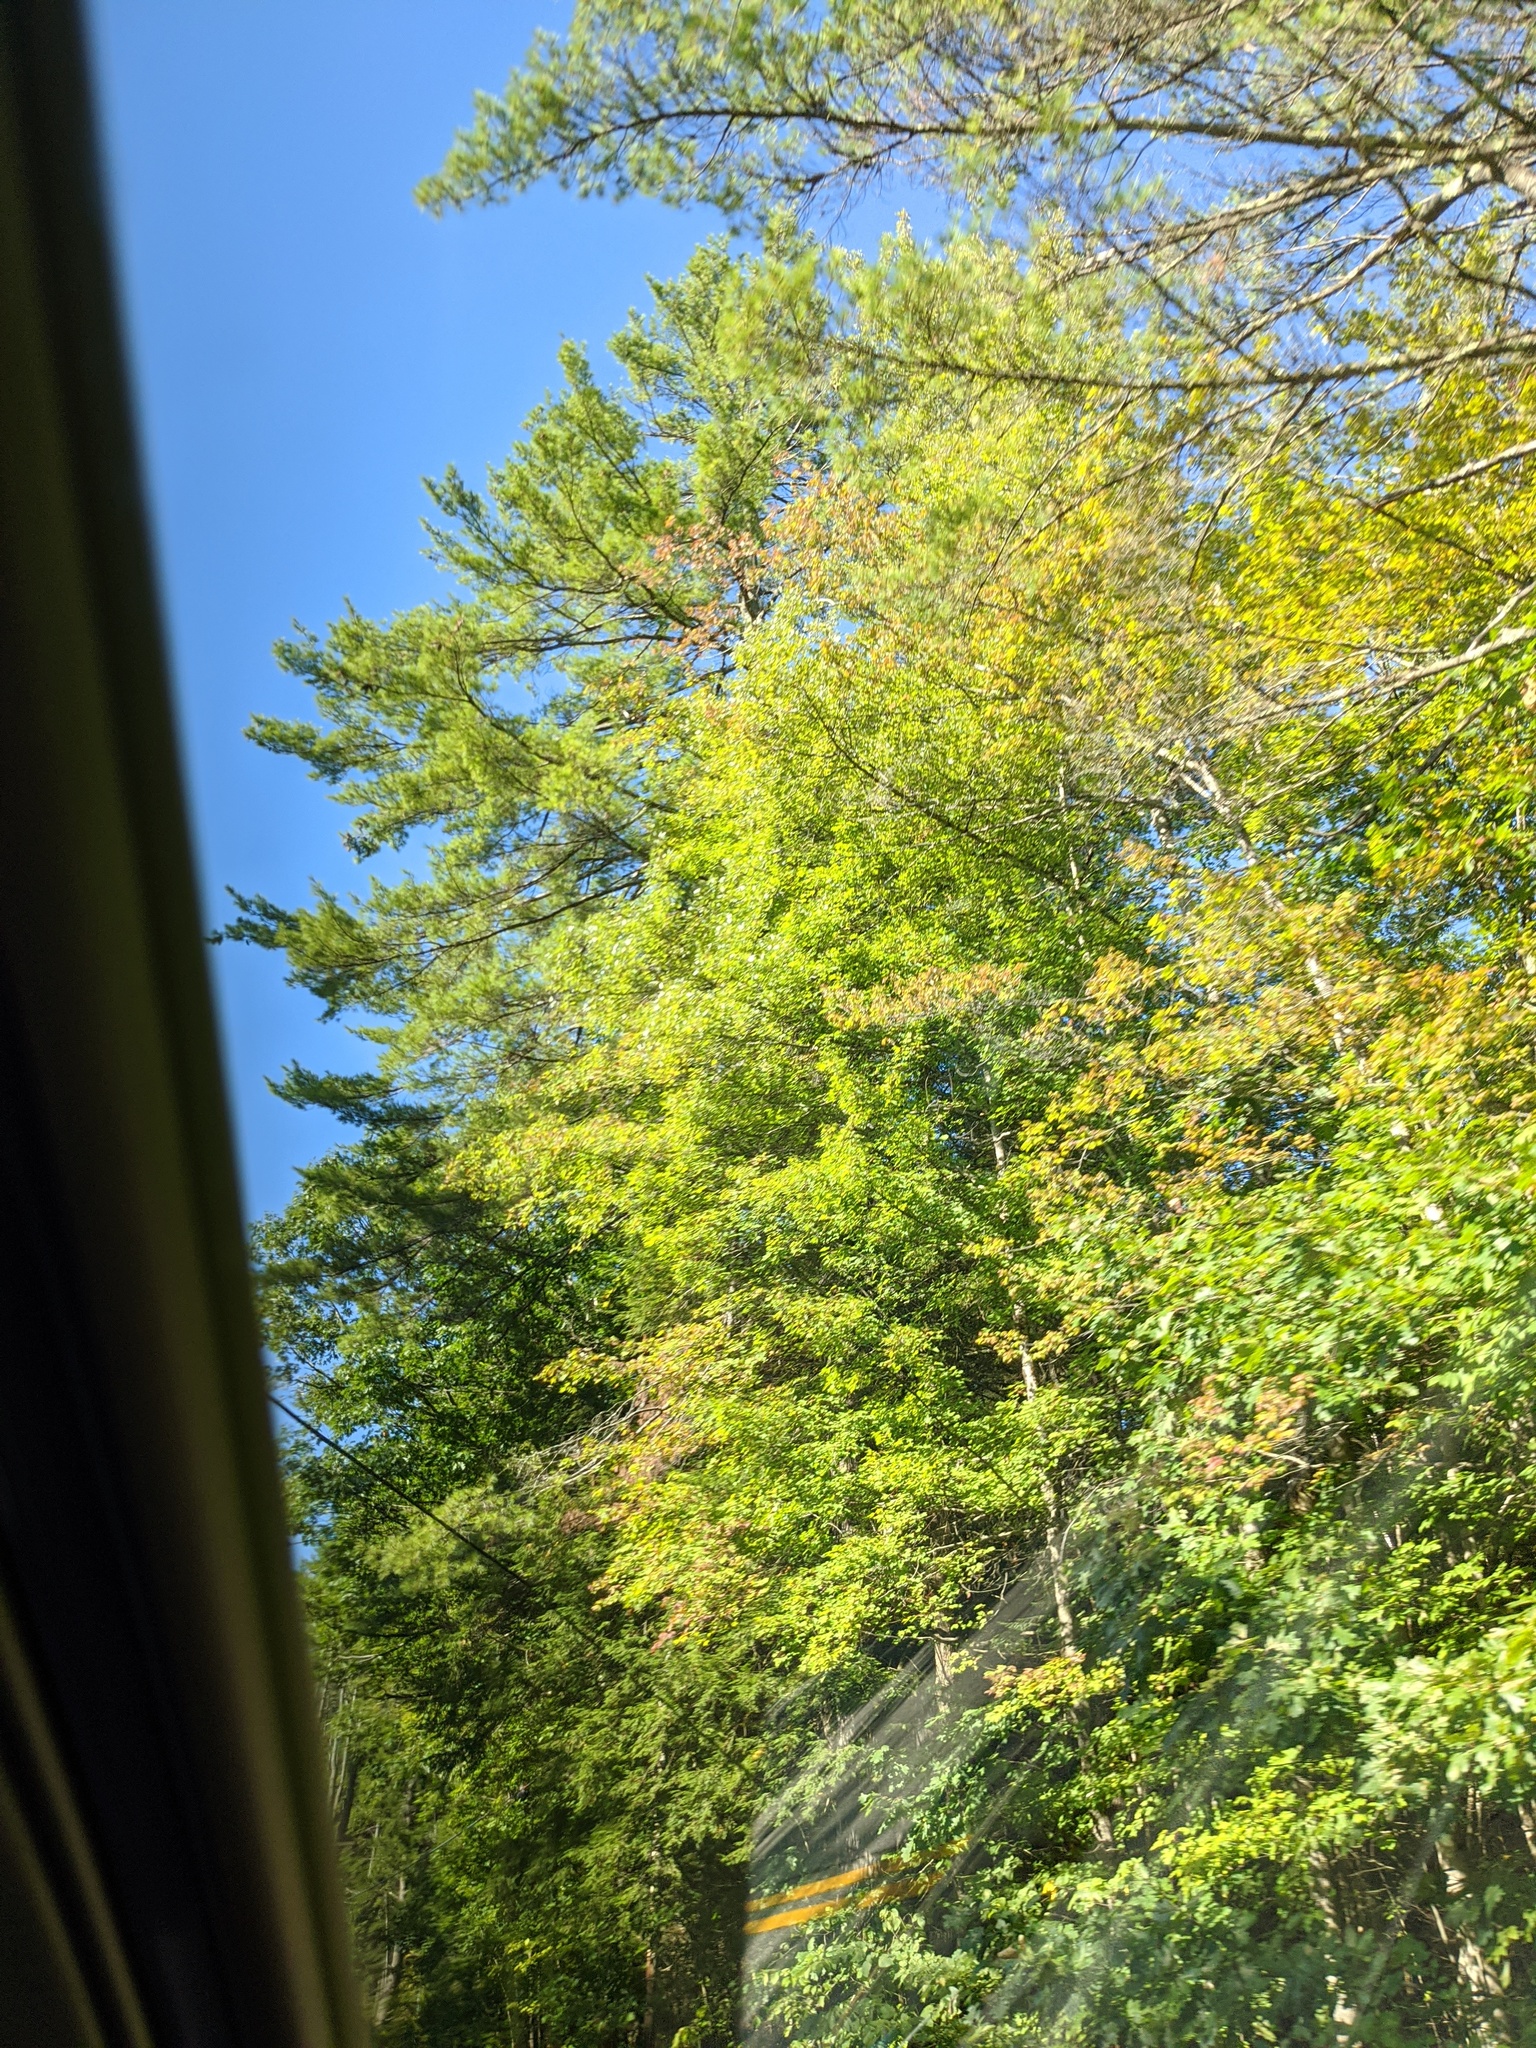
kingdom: Plantae
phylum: Tracheophyta
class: Pinopsida
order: Pinales
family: Pinaceae
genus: Pinus
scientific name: Pinus strobus
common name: Weymouth pine
